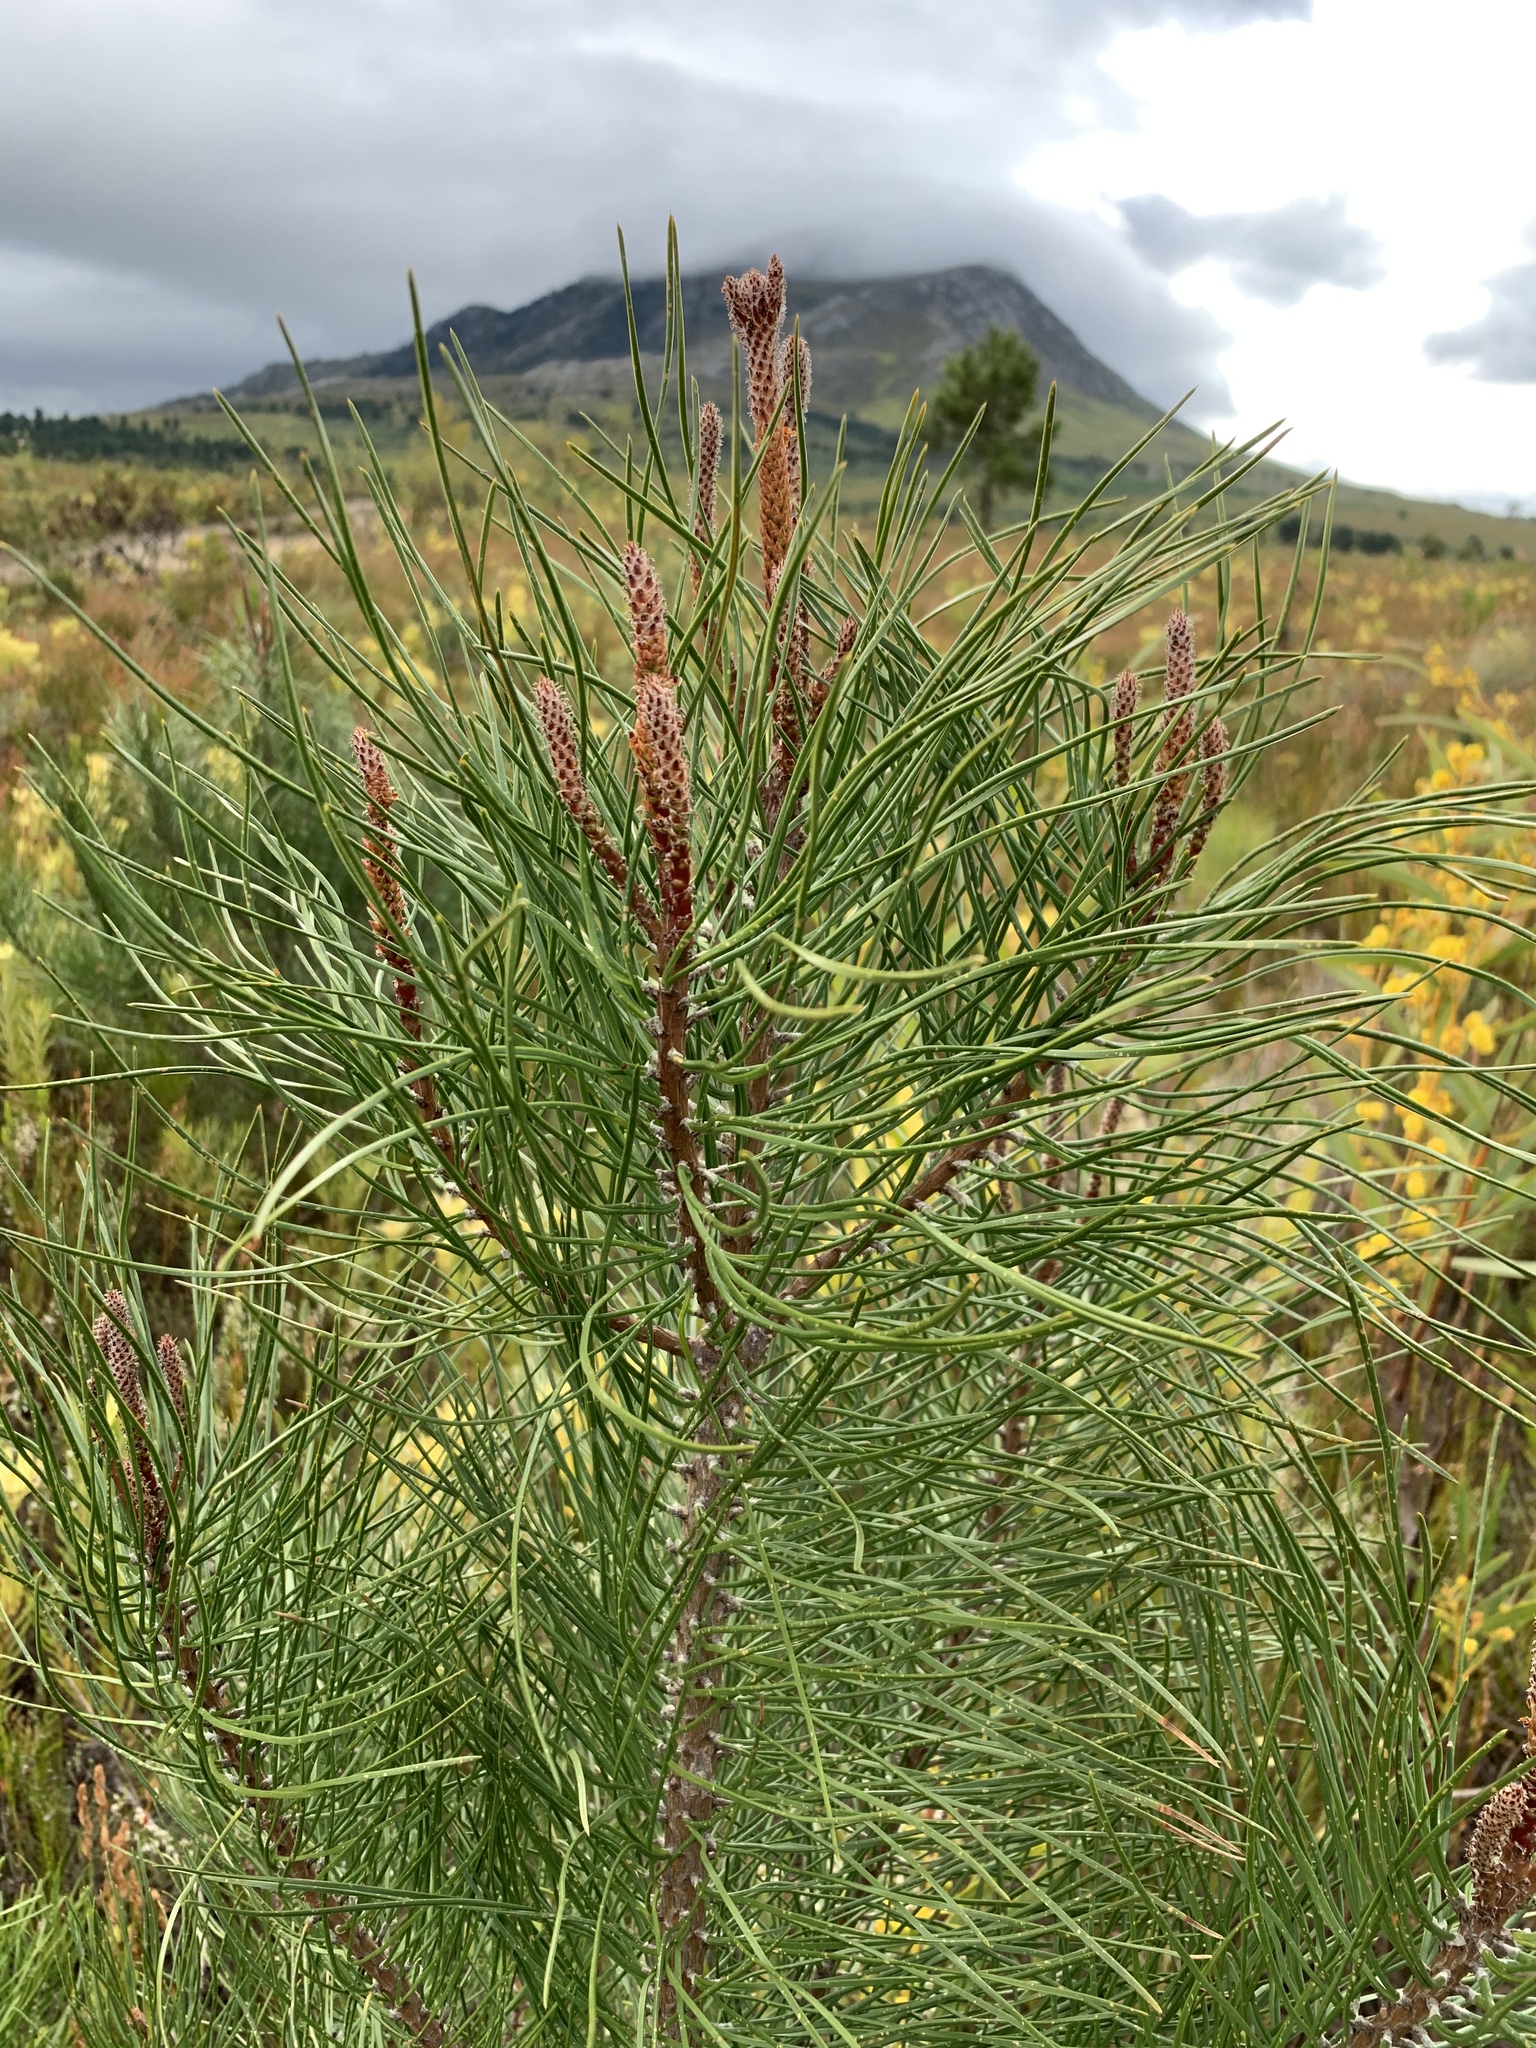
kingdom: Plantae
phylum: Tracheophyta
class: Pinopsida
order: Pinales
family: Pinaceae
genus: Pinus
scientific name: Pinus pinaster
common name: Maritime pine
